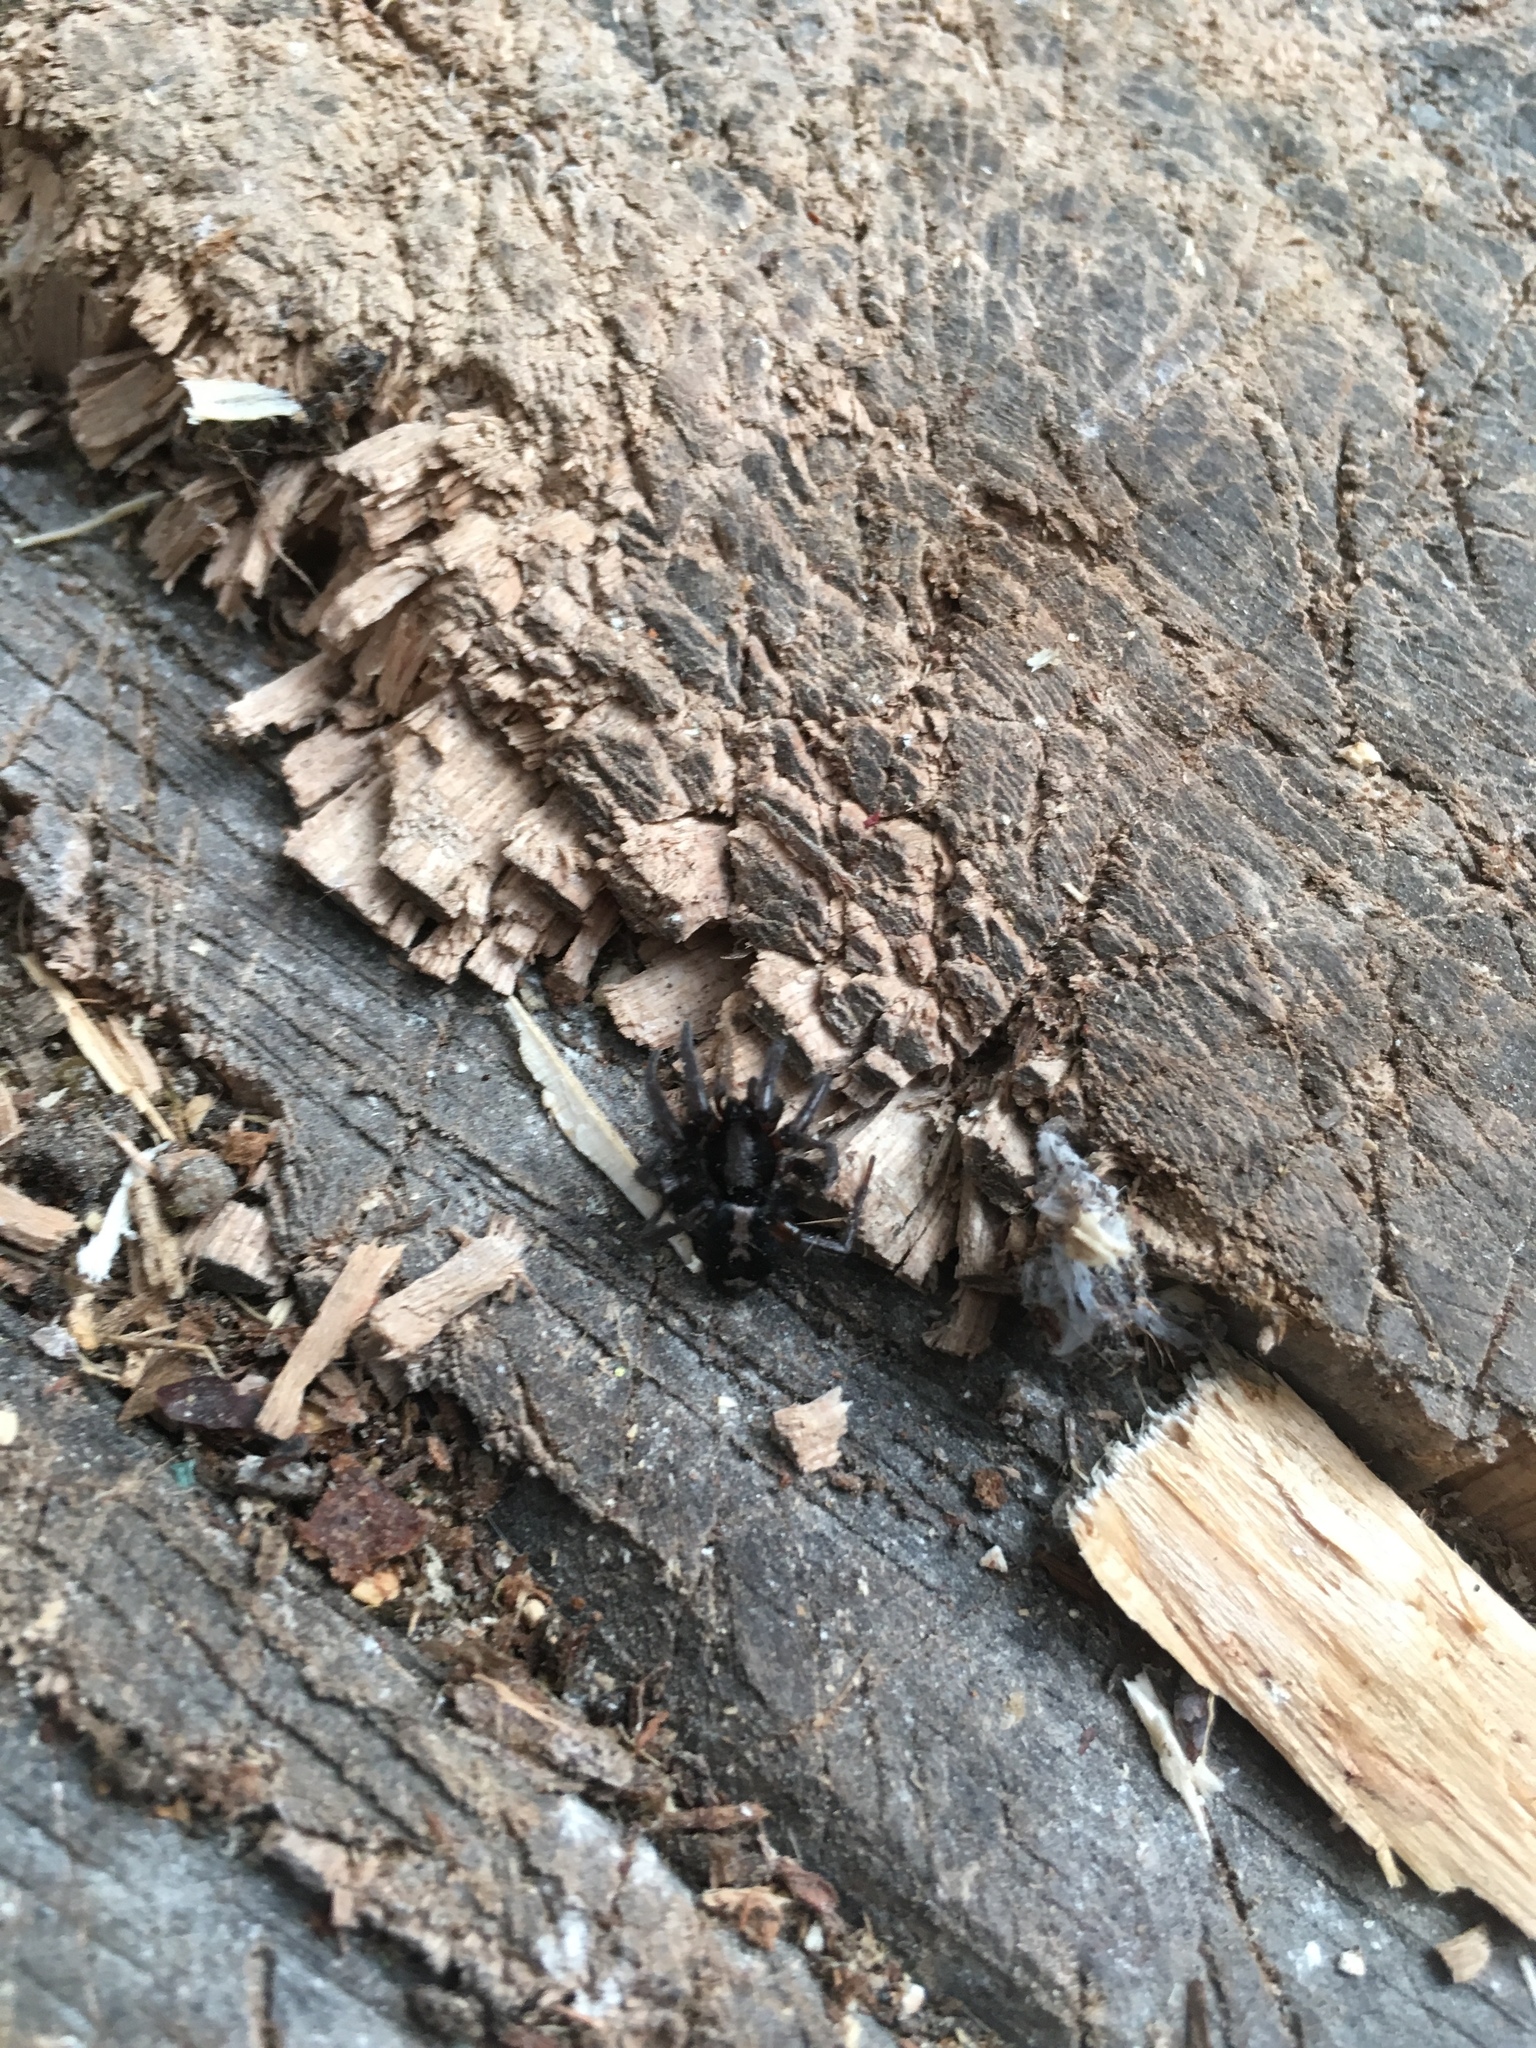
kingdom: Animalia
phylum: Arthropoda
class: Arachnida
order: Araneae
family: Gnaphosidae
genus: Herpyllus
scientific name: Herpyllus ecclesiasticus
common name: Eastern parson spider
